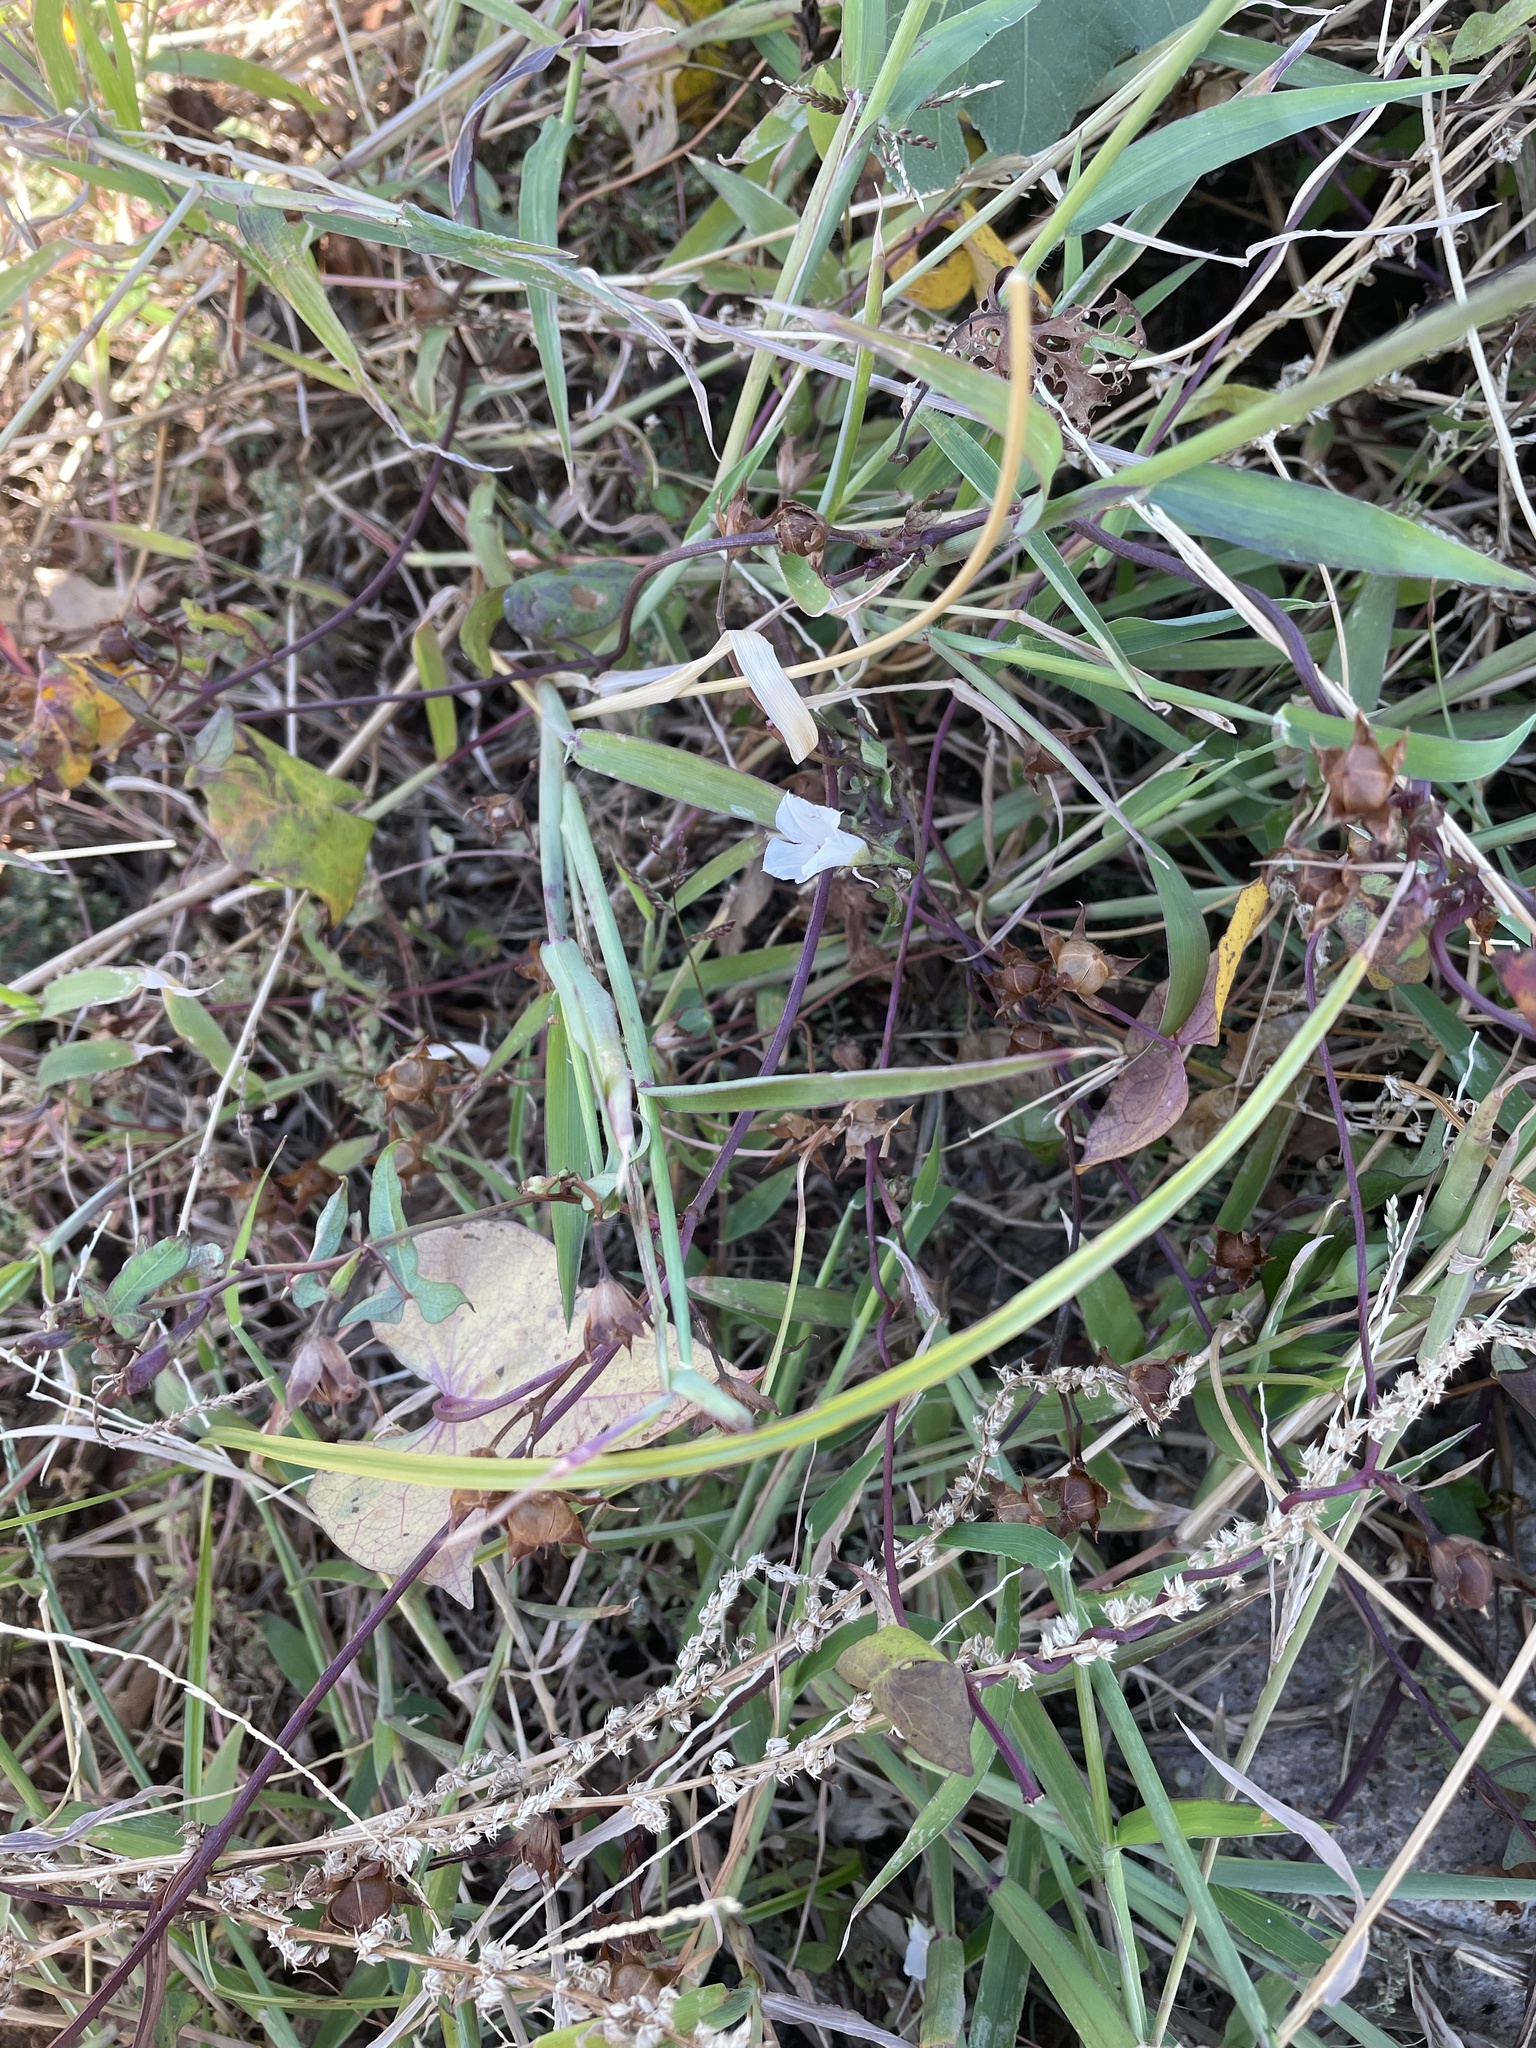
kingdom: Plantae
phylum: Tracheophyta
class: Magnoliopsida
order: Solanales
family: Convolvulaceae
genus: Ipomoea
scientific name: Ipomoea lacunosa
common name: White morning-glory
